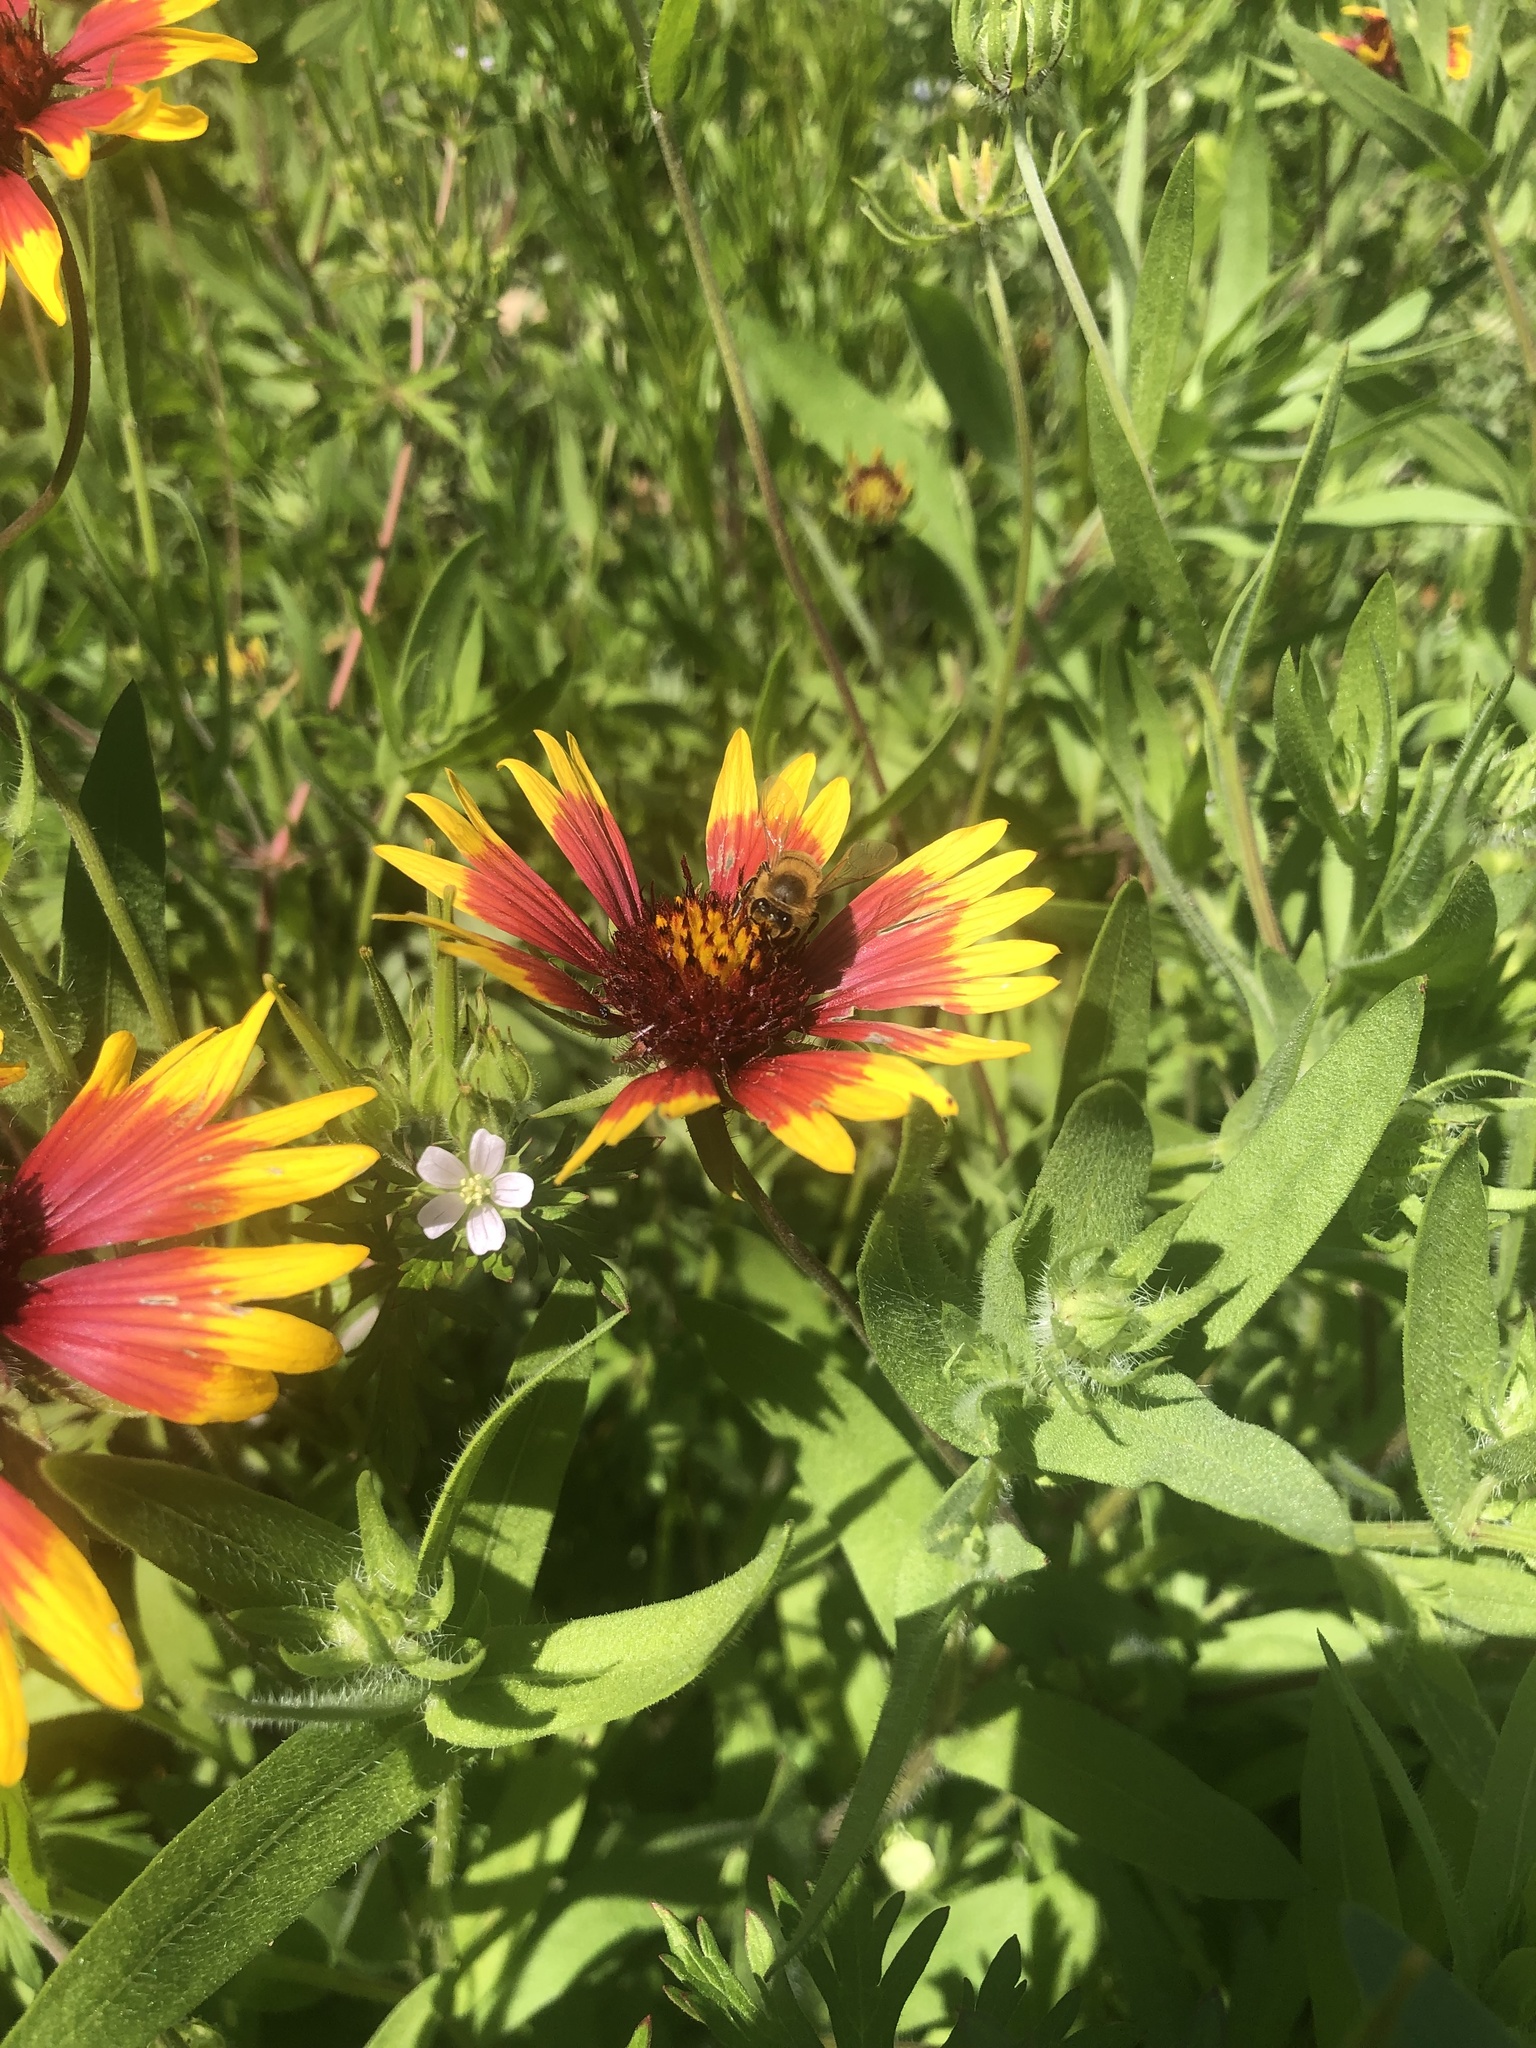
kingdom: Animalia
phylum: Arthropoda
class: Insecta
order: Hymenoptera
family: Apidae
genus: Apis
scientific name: Apis mellifera
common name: Honey bee
